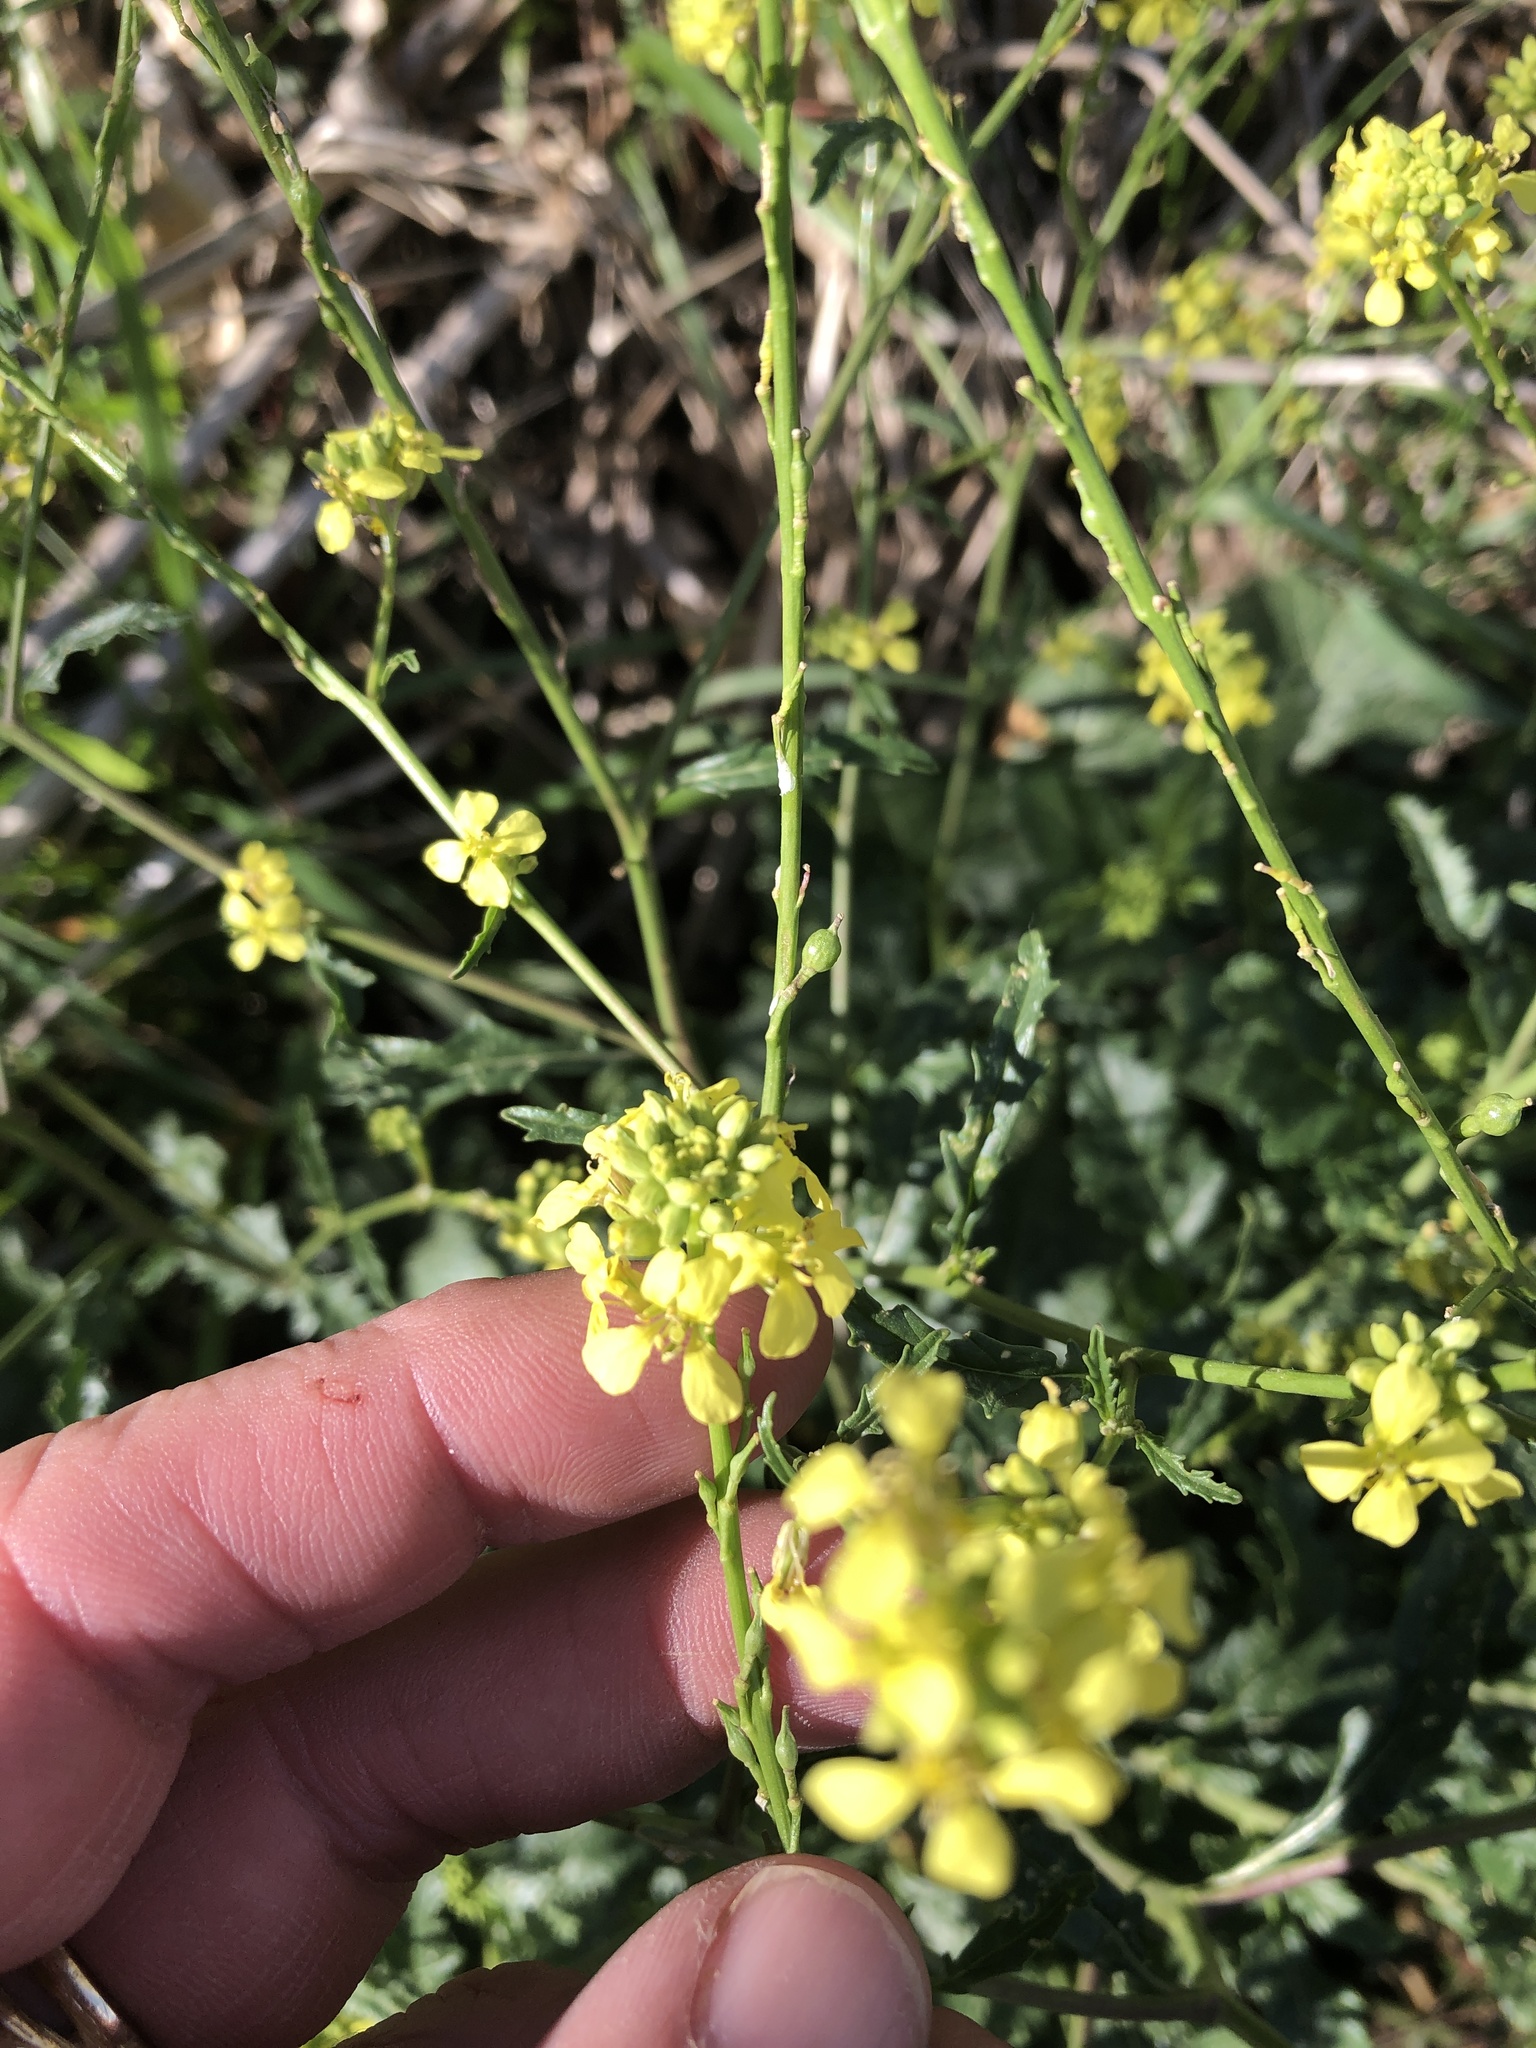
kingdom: Plantae
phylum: Tracheophyta
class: Magnoliopsida
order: Brassicales
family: Brassicaceae
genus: Rapistrum
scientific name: Rapistrum rugosum
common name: Annual bastardcabbage
